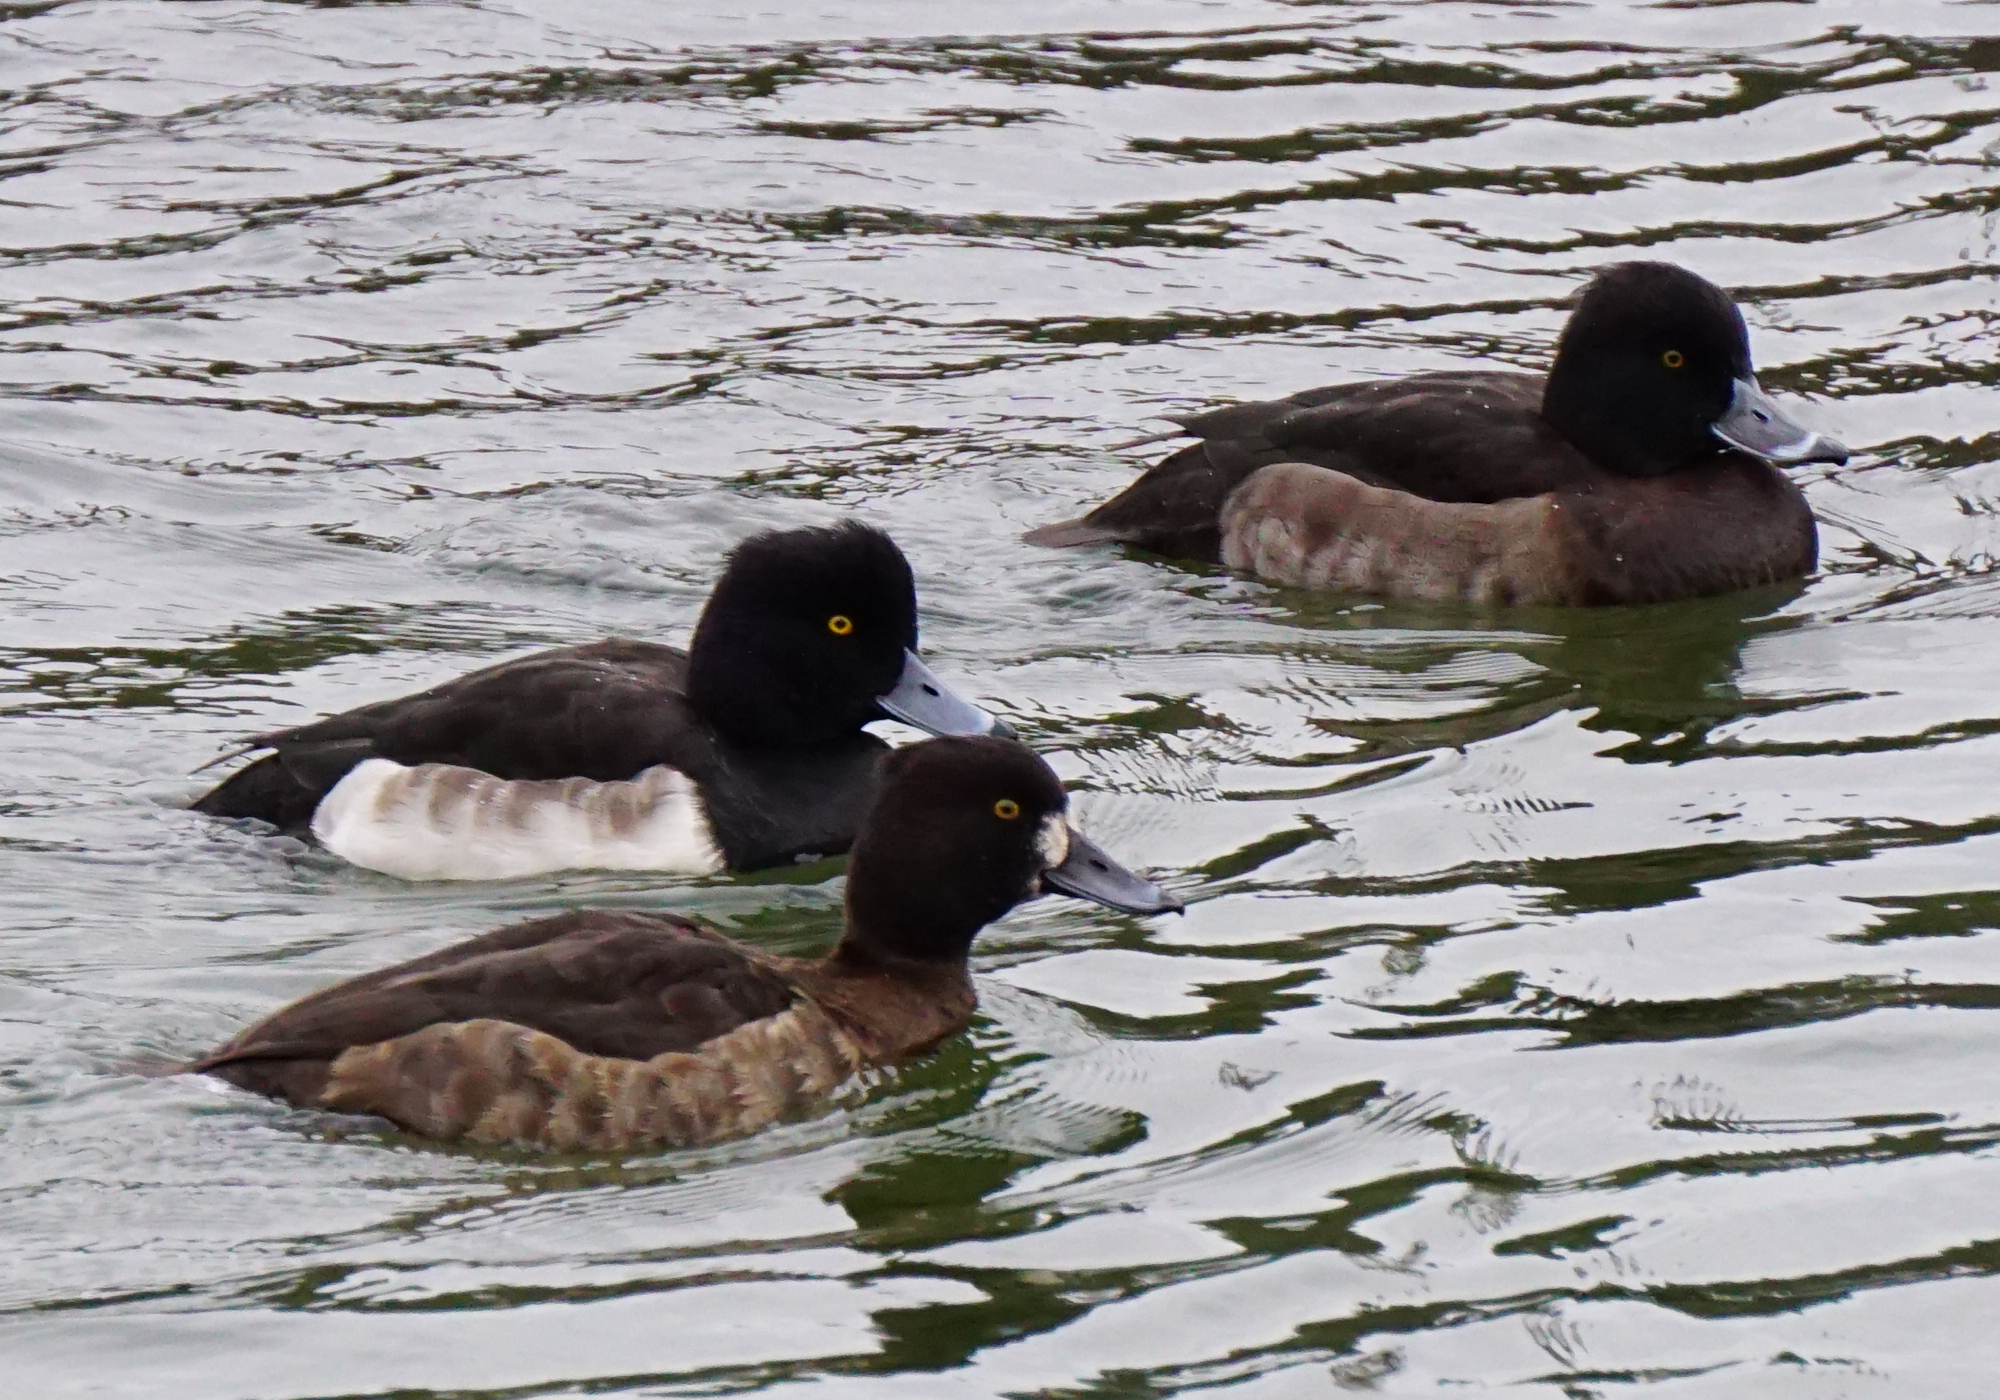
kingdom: Animalia
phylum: Chordata
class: Aves
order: Anseriformes
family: Anatidae
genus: Aythya
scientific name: Aythya fuligula
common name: Tufted duck
